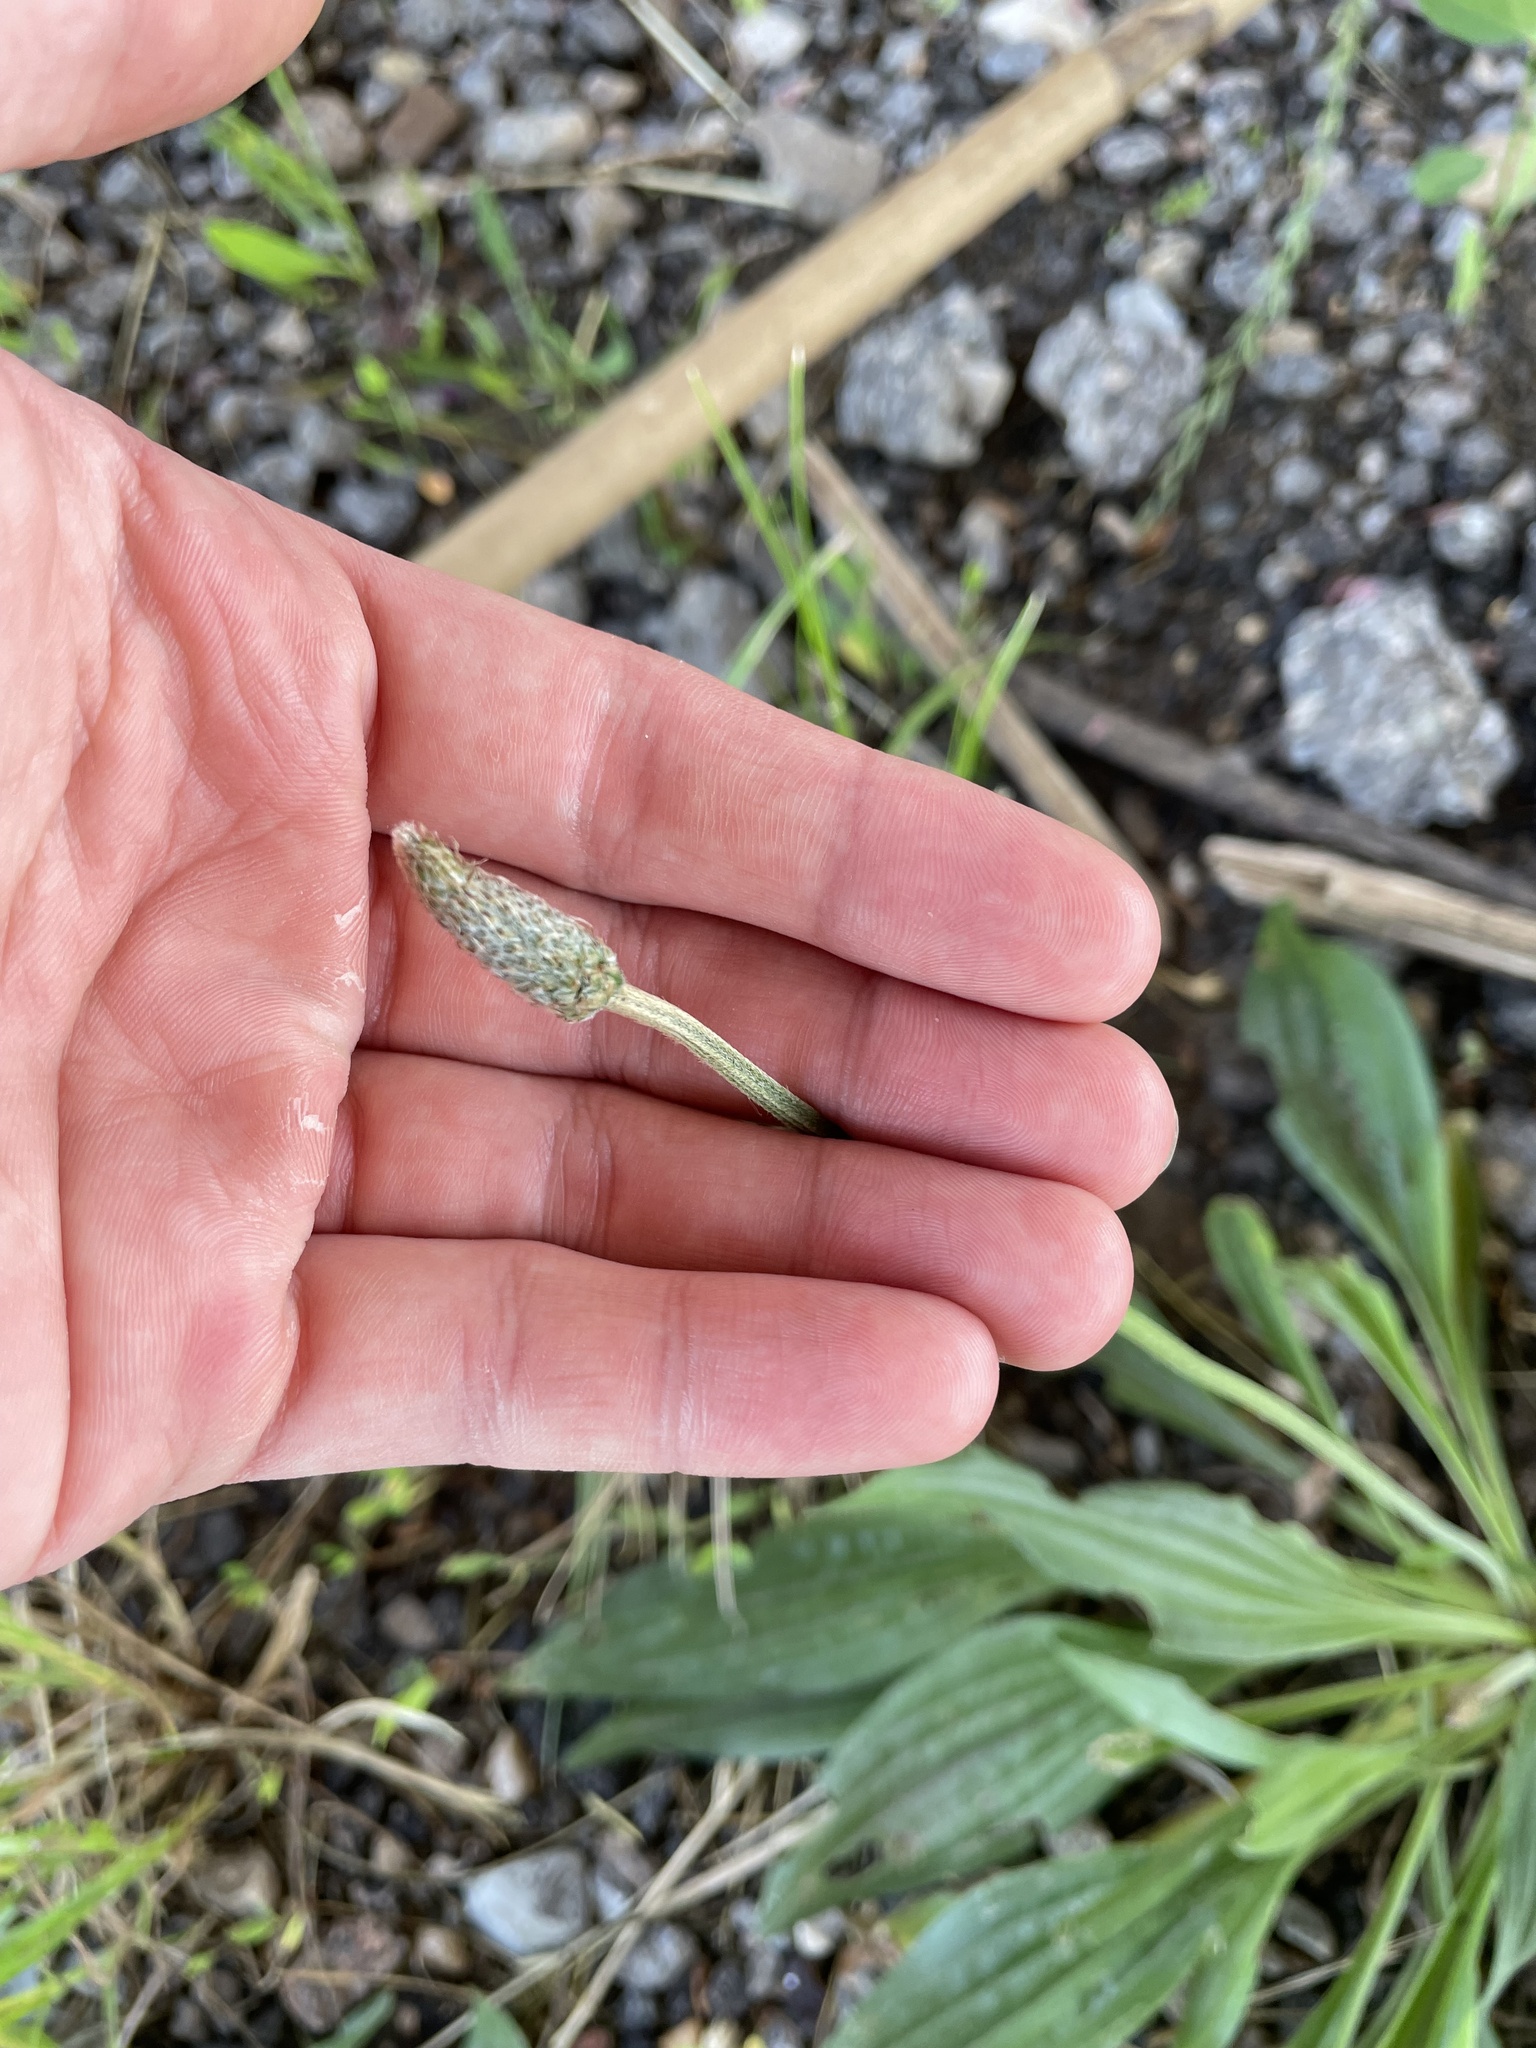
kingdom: Plantae
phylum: Tracheophyta
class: Magnoliopsida
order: Lamiales
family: Plantaginaceae
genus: Plantago
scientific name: Plantago lanceolata
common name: Ribwort plantain
